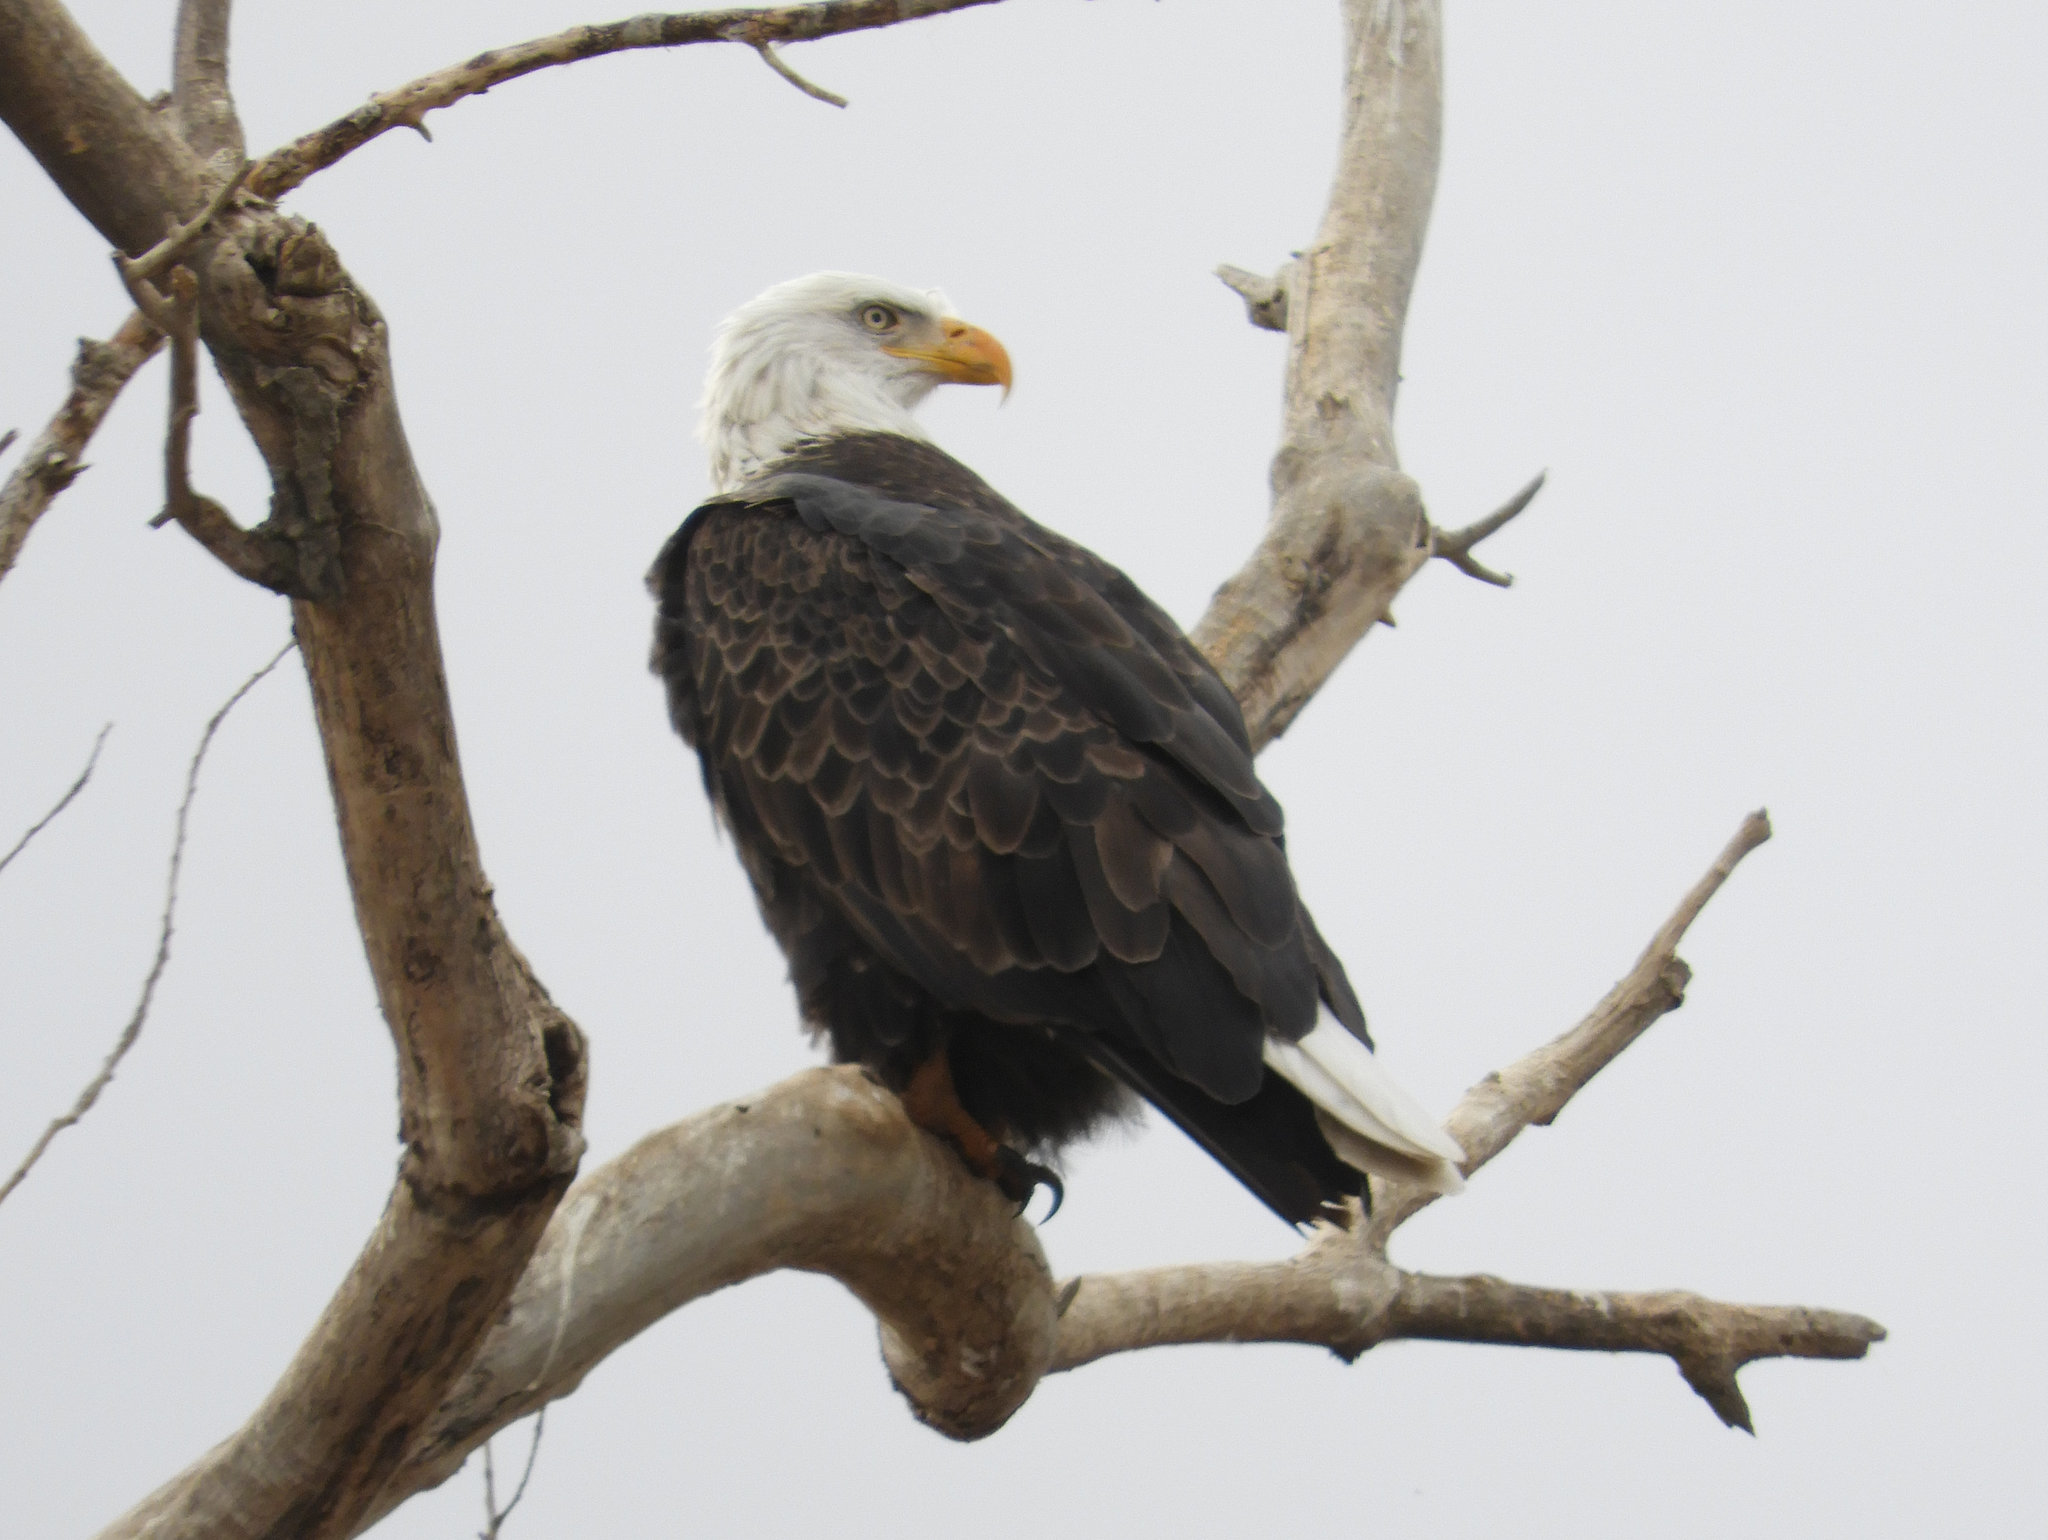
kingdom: Animalia
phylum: Chordata
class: Aves
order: Accipitriformes
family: Accipitridae
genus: Haliaeetus
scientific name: Haliaeetus leucocephalus
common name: Bald eagle
